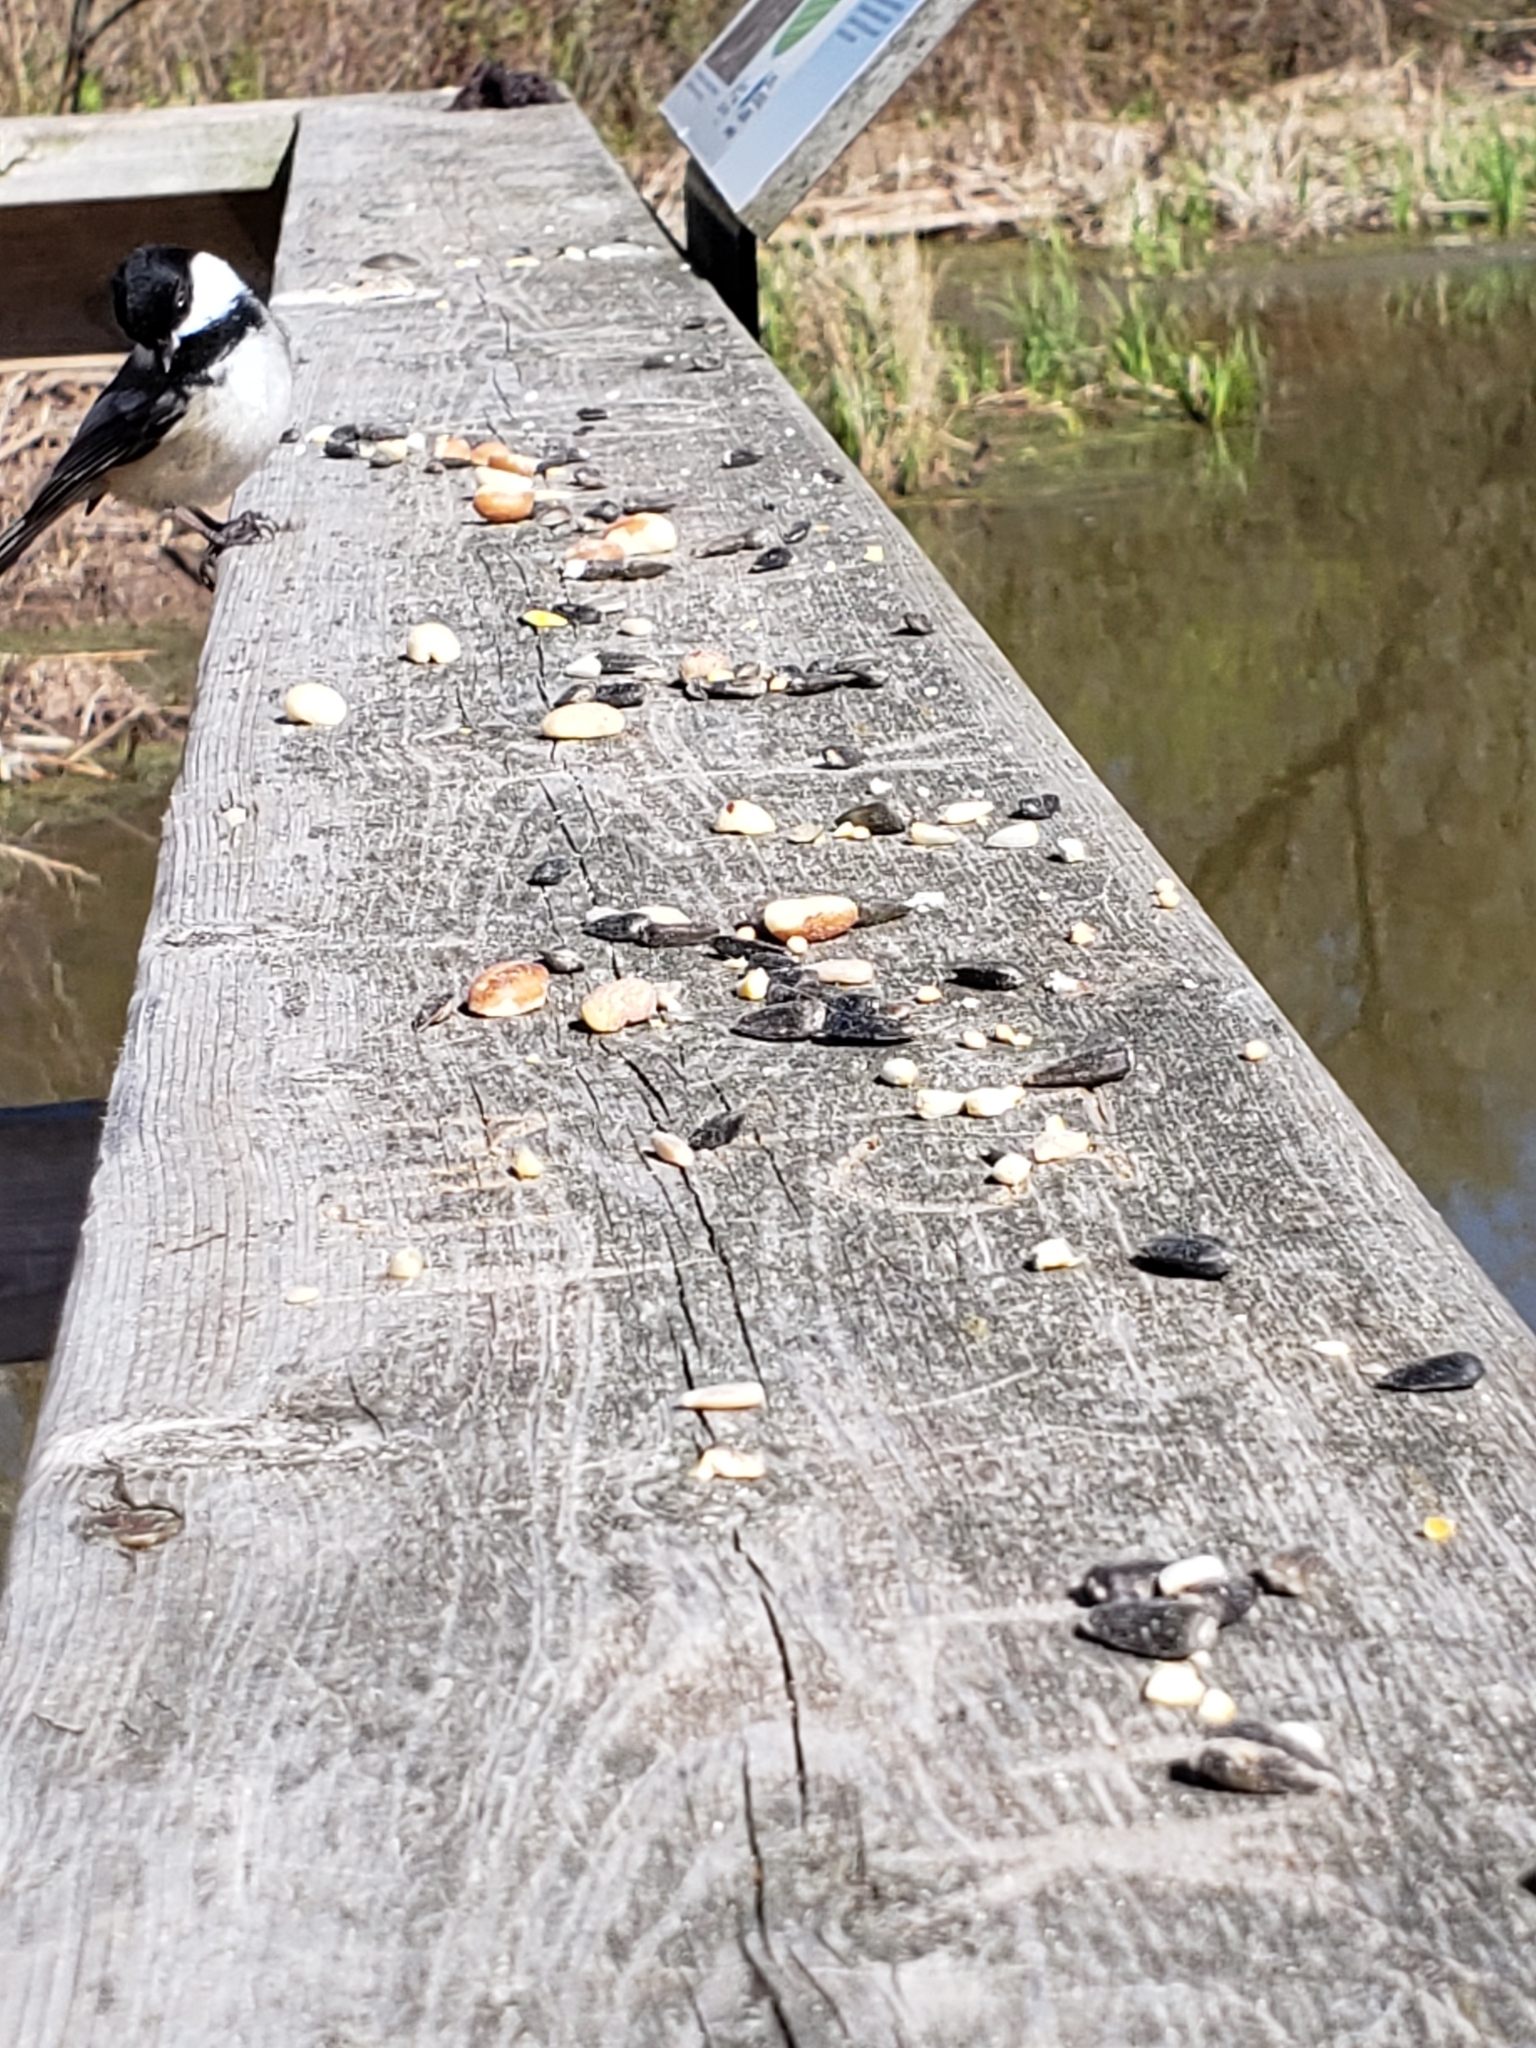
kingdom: Animalia
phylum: Chordata
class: Aves
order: Passeriformes
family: Paridae
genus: Poecile
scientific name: Poecile atricapillus
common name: Black-capped chickadee
